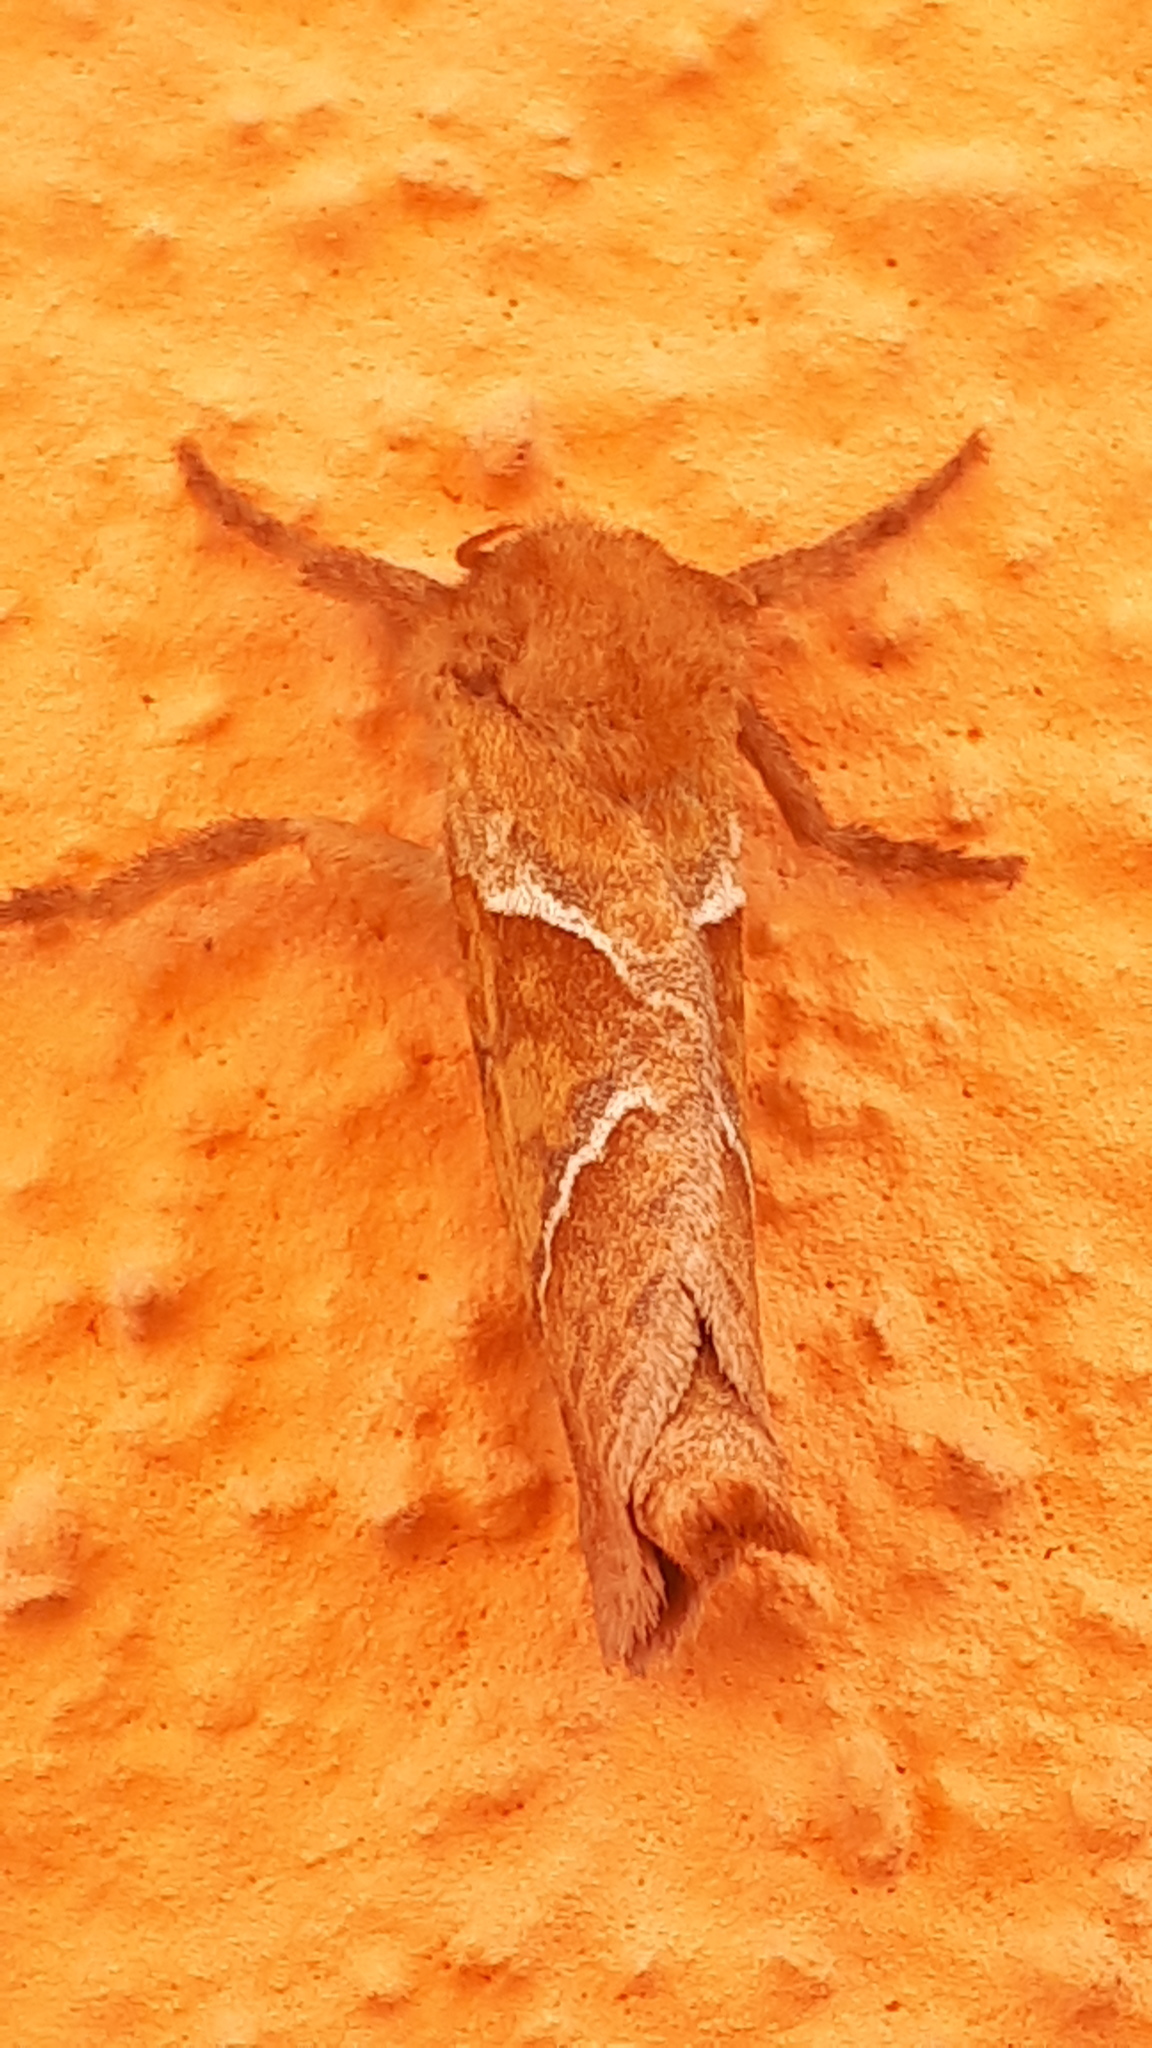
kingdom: Animalia
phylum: Arthropoda
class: Insecta
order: Lepidoptera
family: Hepialidae
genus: Triodia
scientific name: Triodia sylvina
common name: Orange swift
